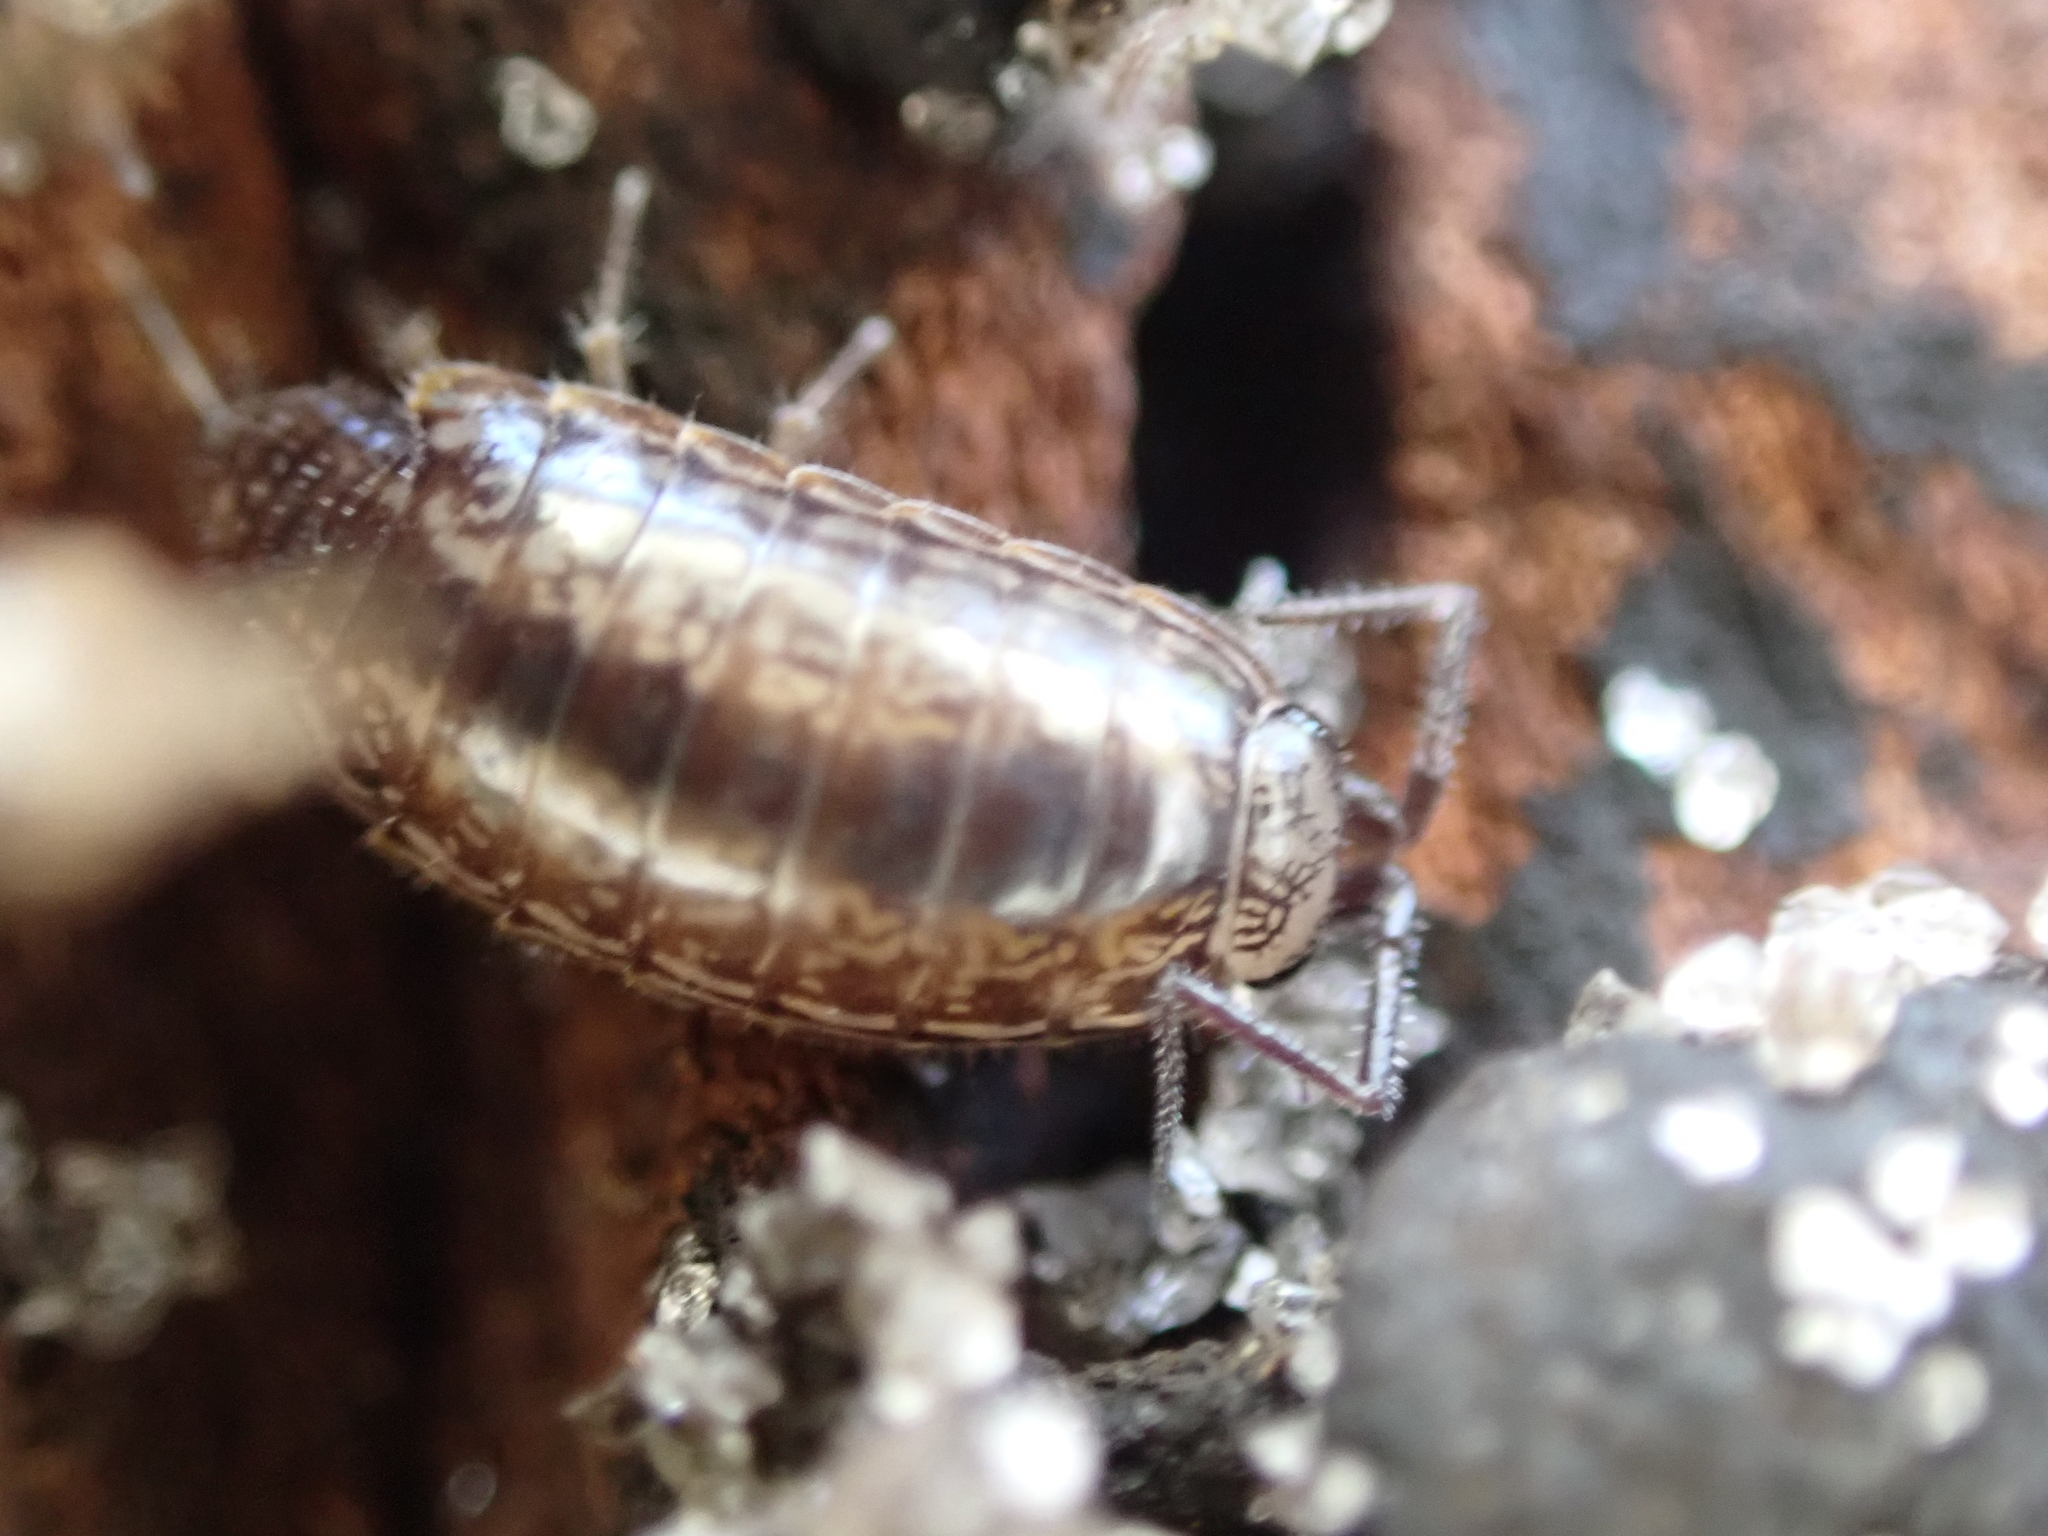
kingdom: Animalia
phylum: Arthropoda
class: Malacostraca
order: Isopoda
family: Philosciidae
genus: Atlantoscia
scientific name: Atlantoscia floridana
